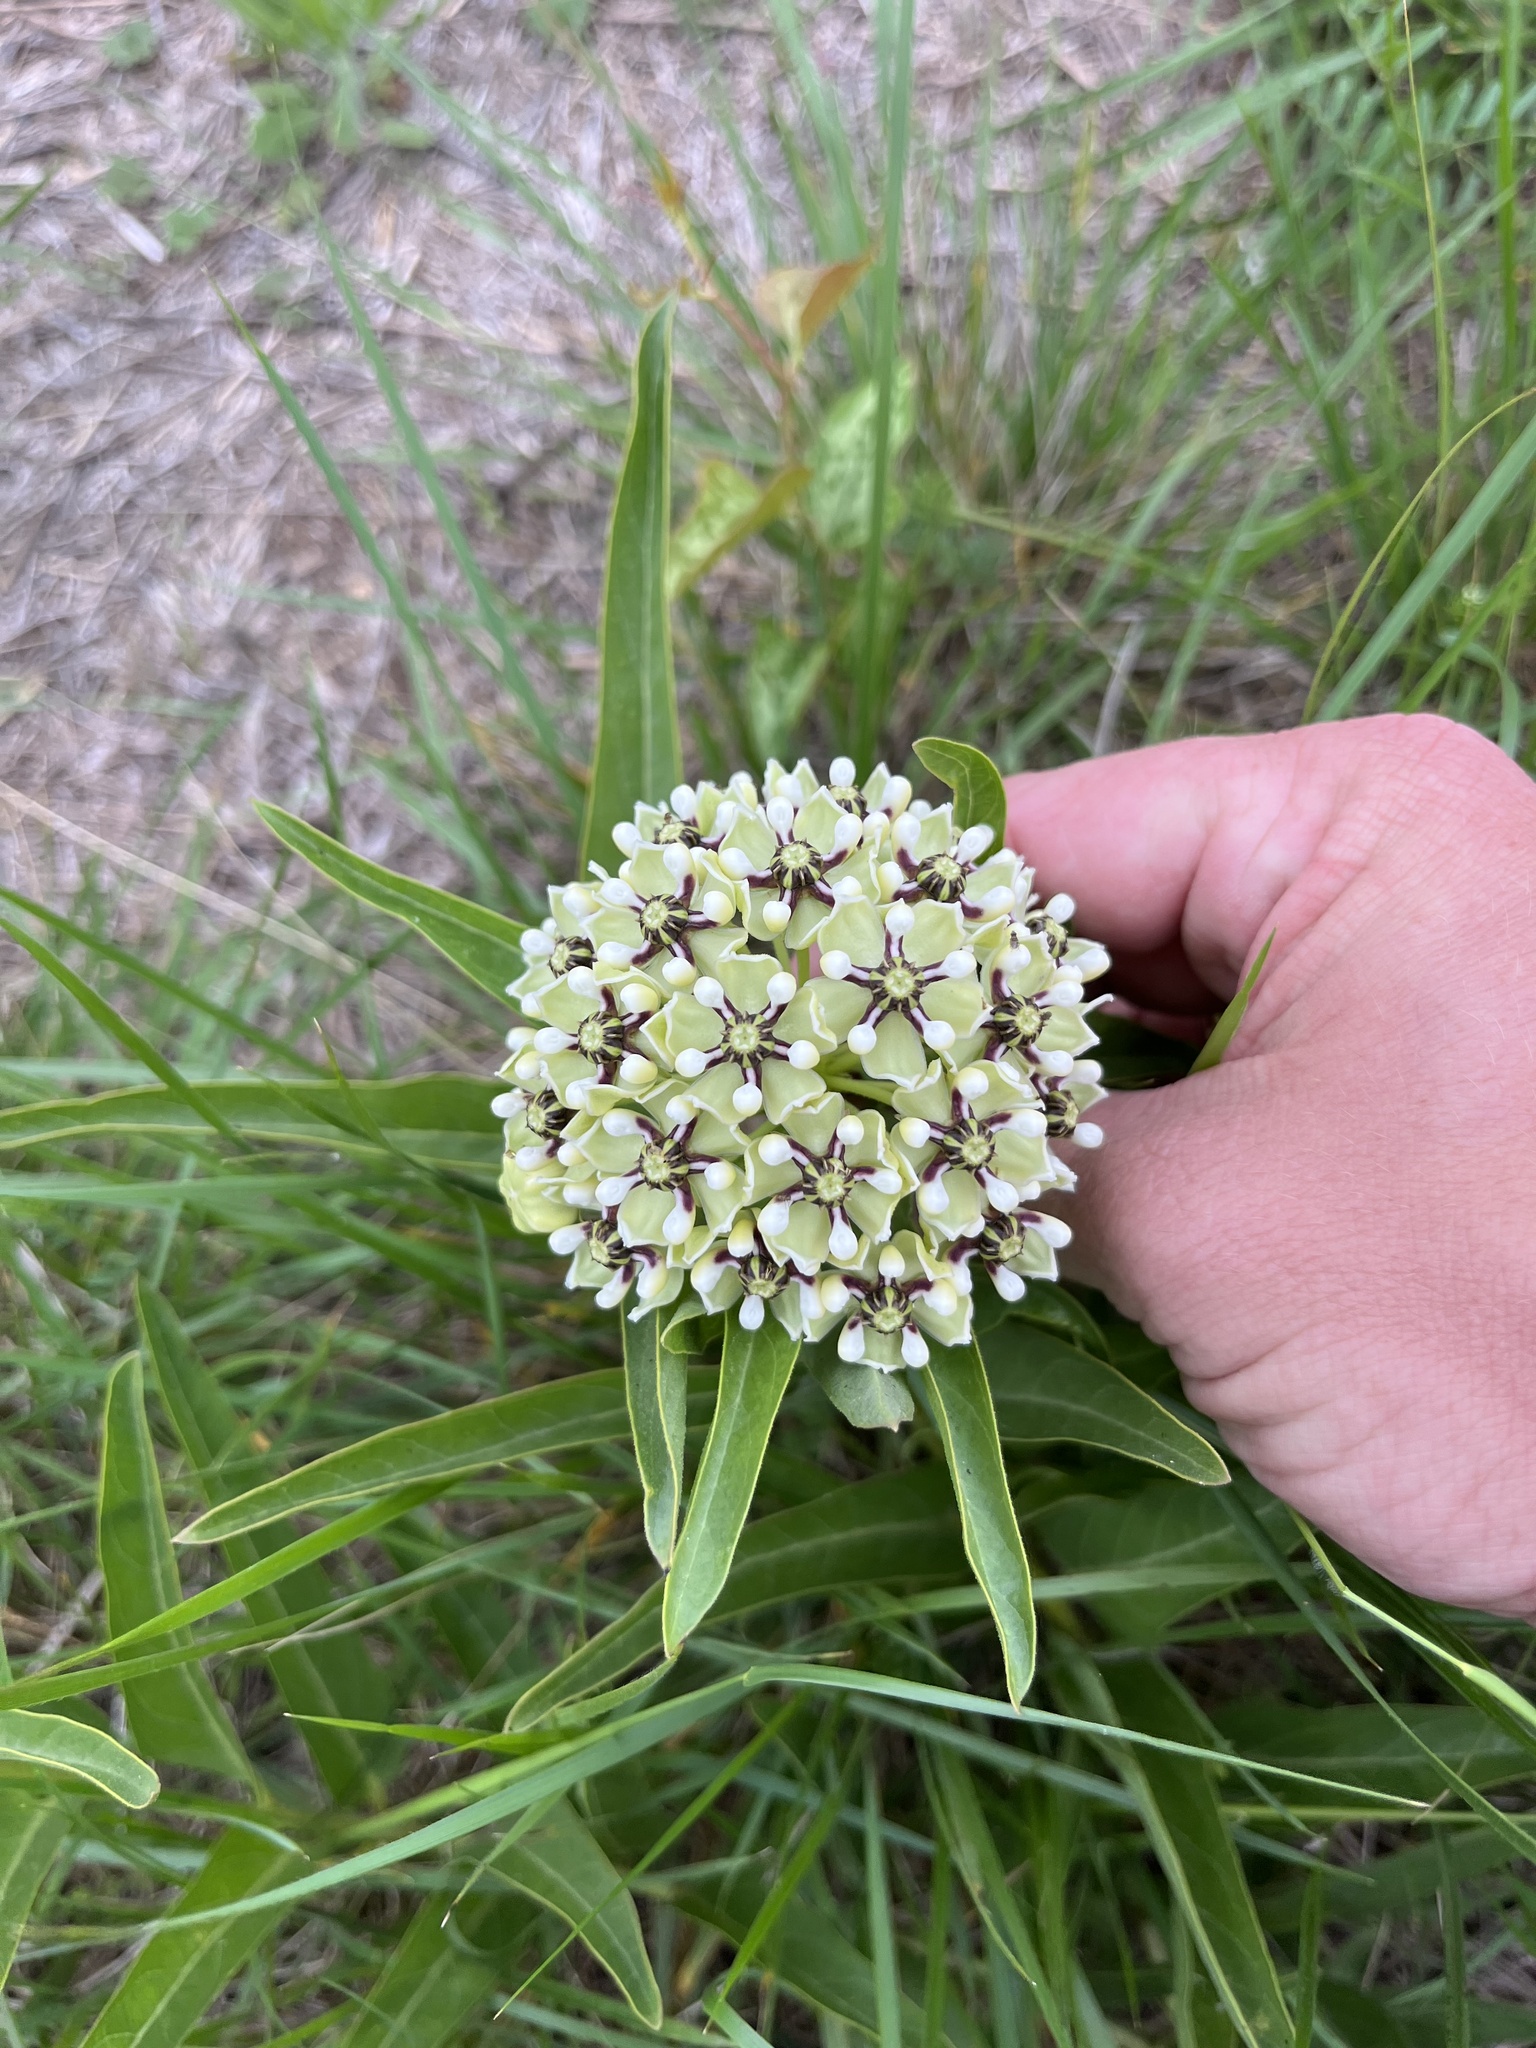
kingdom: Plantae
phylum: Tracheophyta
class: Magnoliopsida
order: Gentianales
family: Apocynaceae
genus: Asclepias
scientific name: Asclepias asperula
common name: Antelope horns
